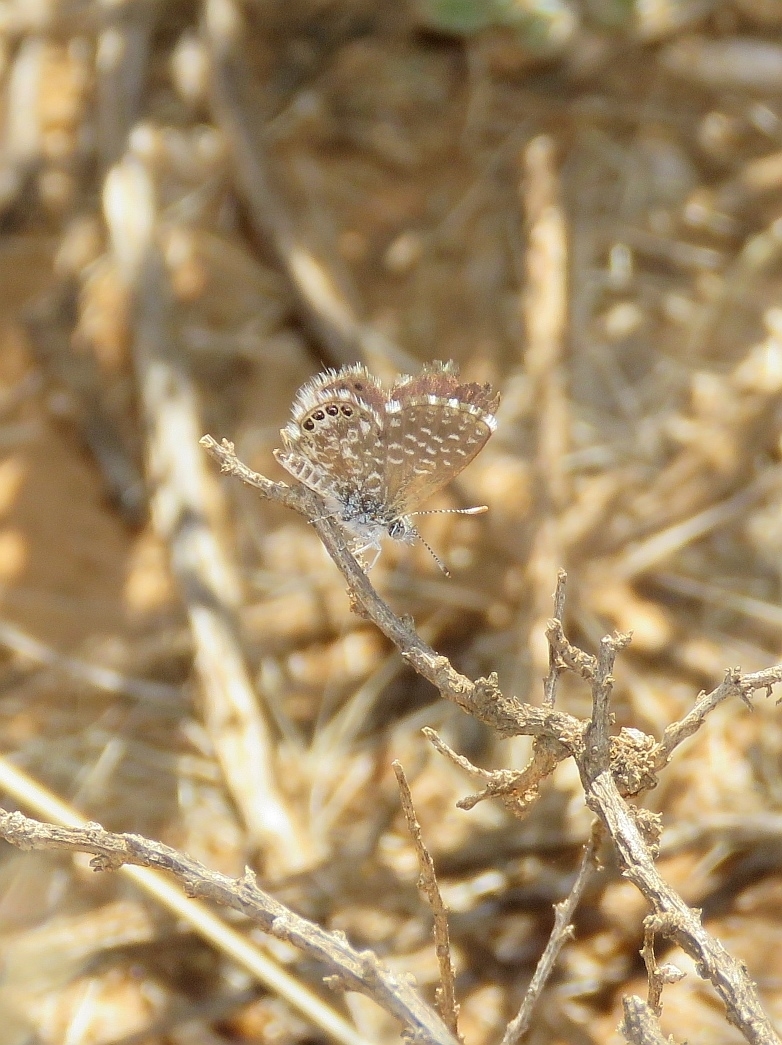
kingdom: Animalia
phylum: Arthropoda
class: Insecta
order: Lepidoptera
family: Lycaenidae
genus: Brephidium
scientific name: Brephidium metophis
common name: Tinktinkie blue
